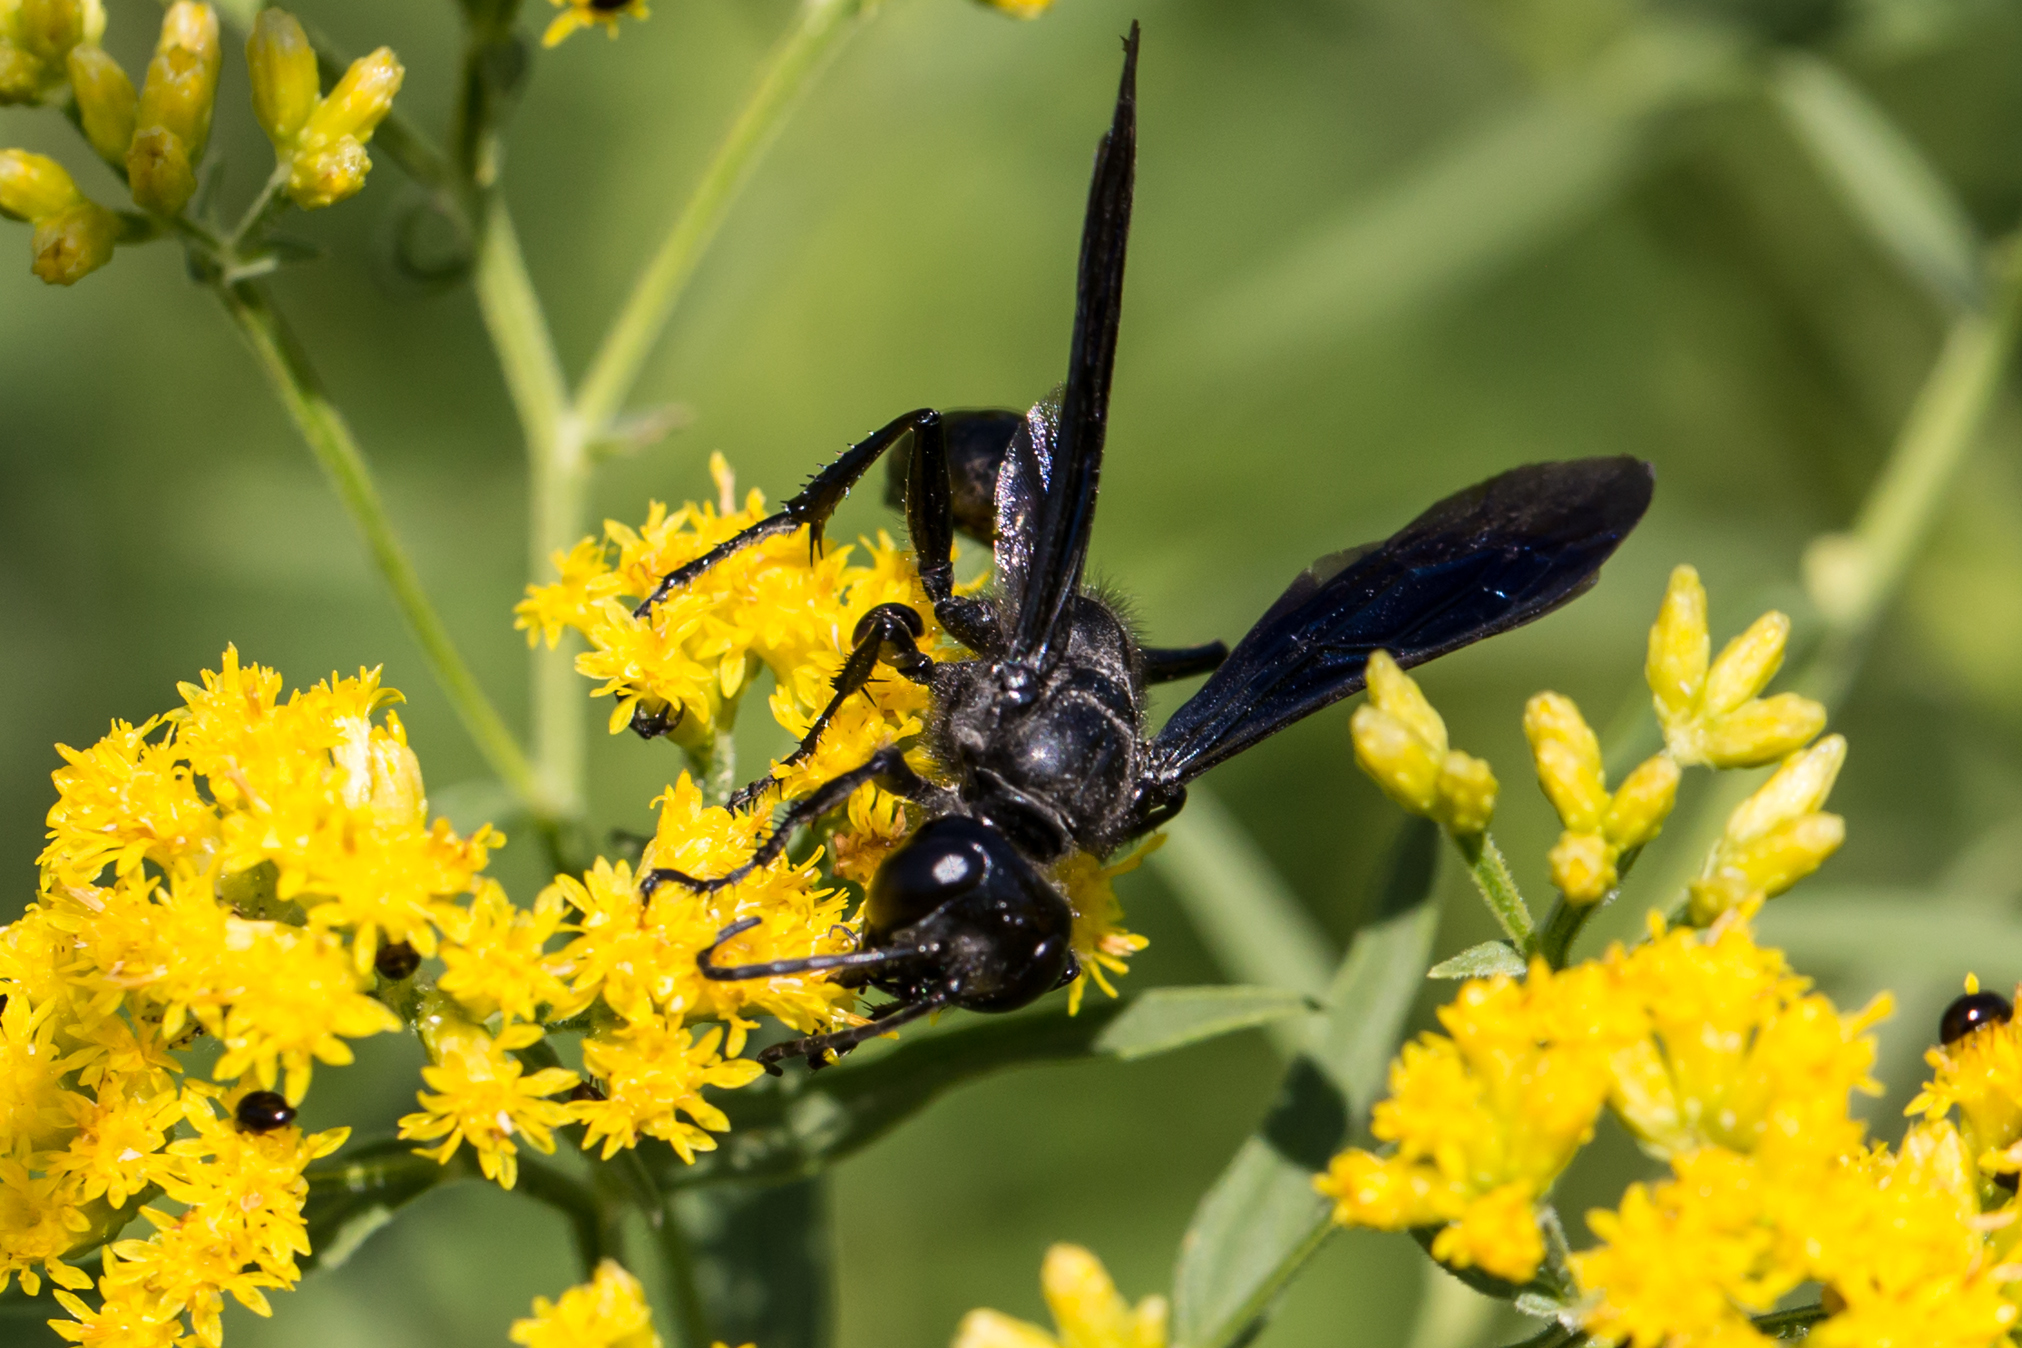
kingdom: Animalia
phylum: Arthropoda
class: Insecta
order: Hymenoptera
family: Sphecidae
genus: Isodontia
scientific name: Isodontia philadelphica
